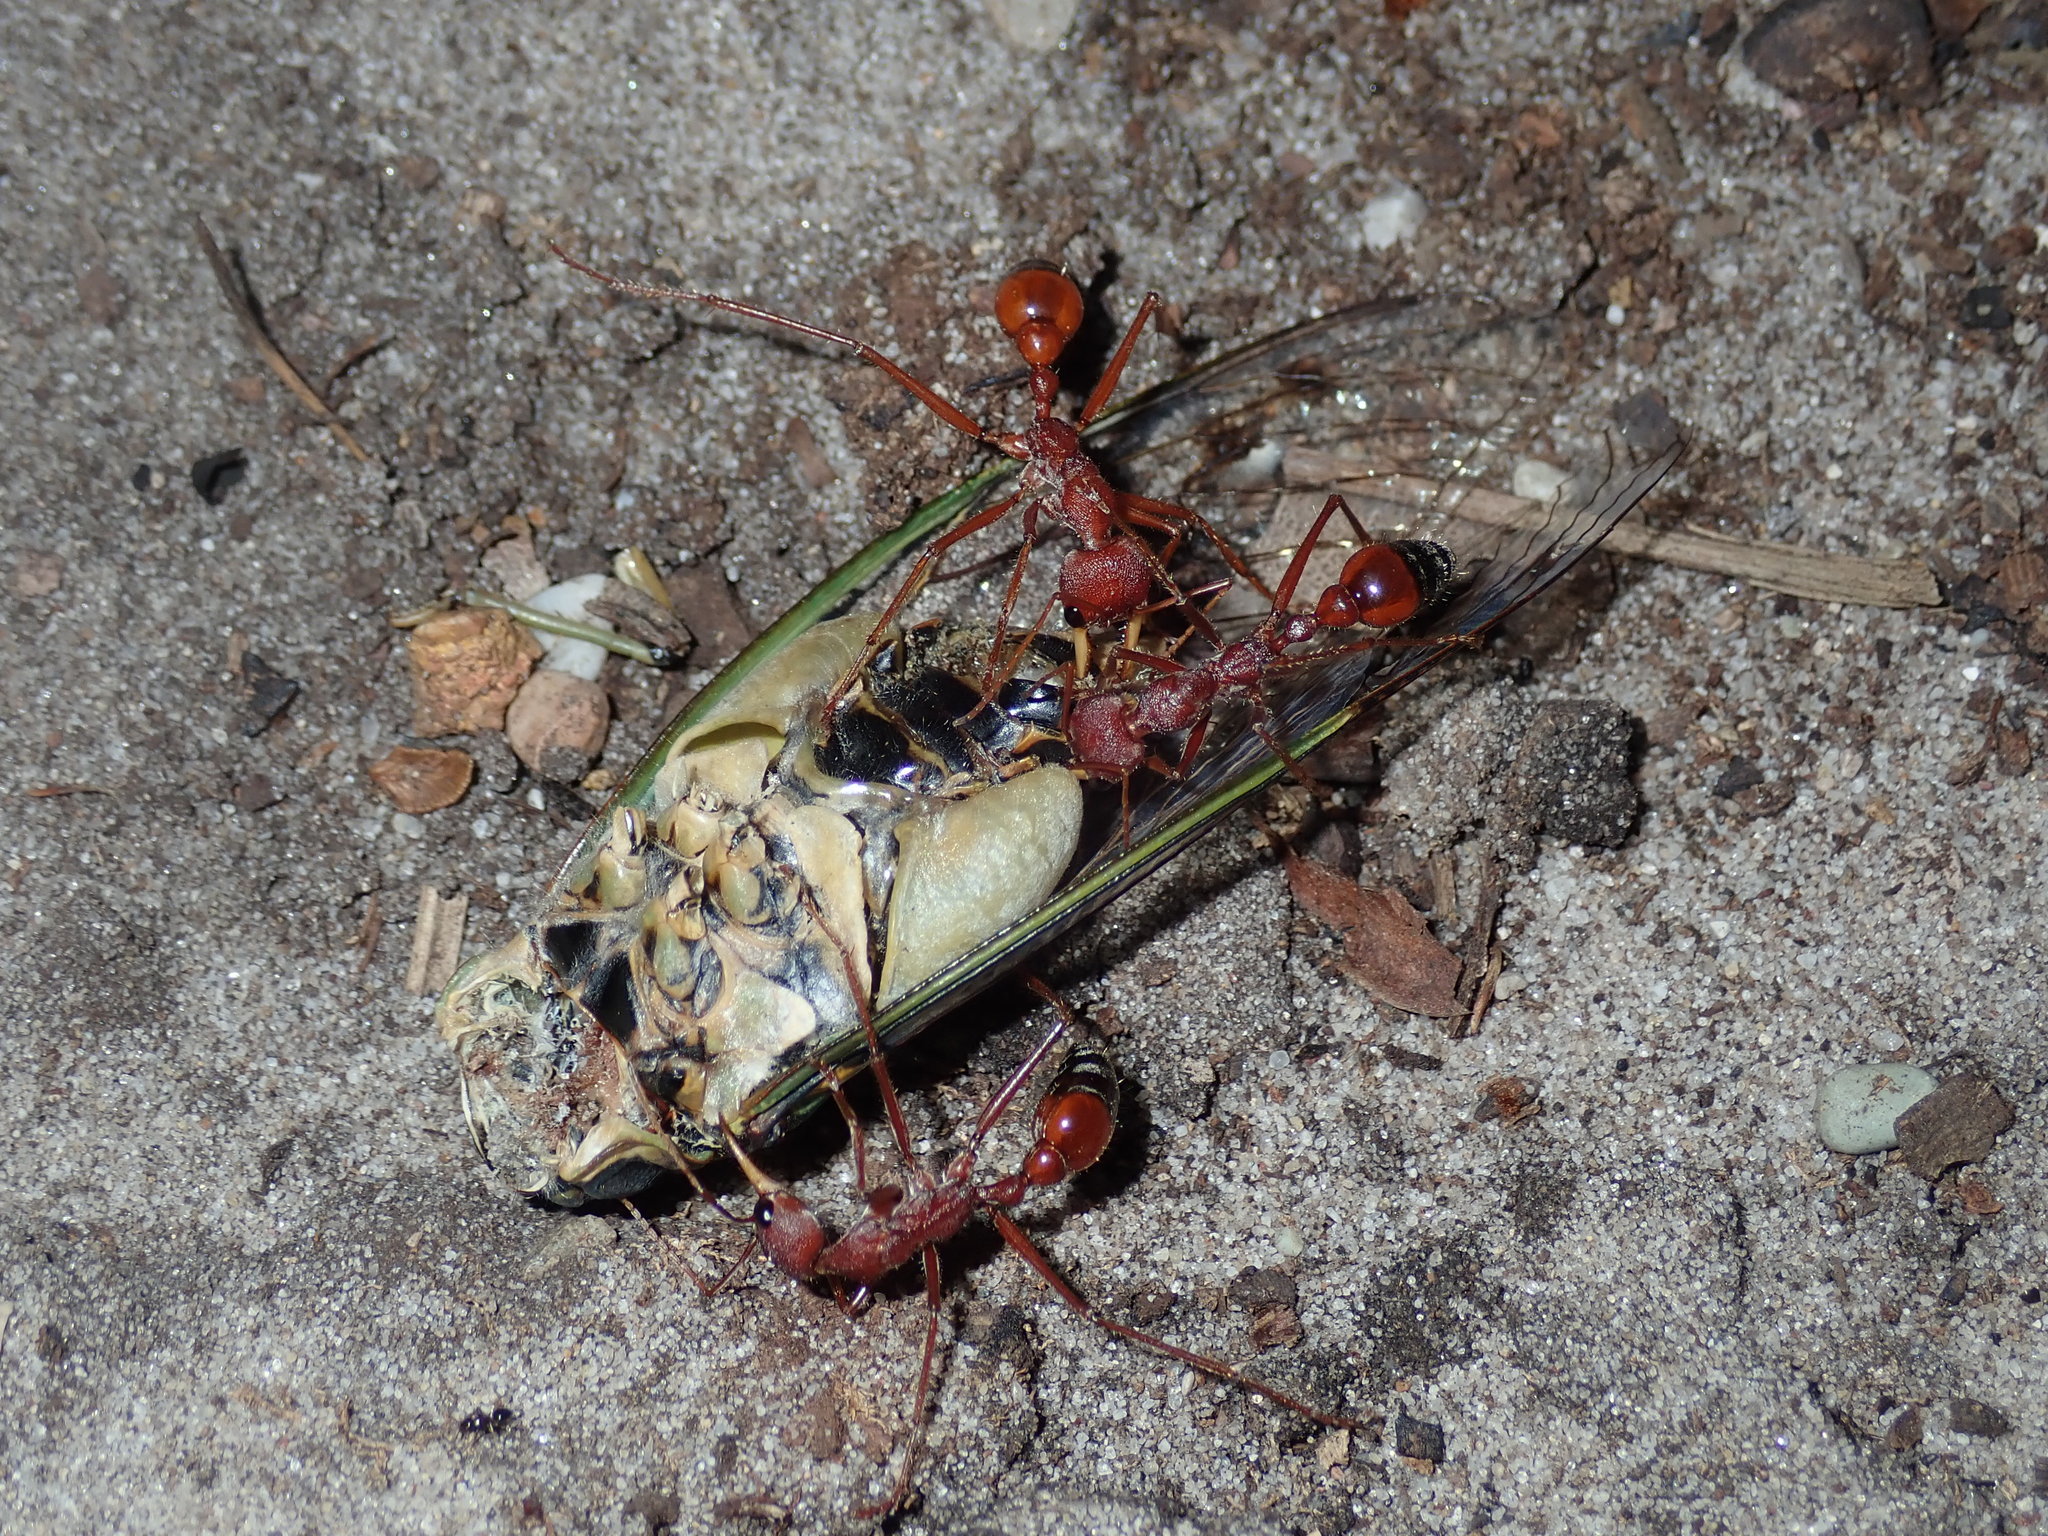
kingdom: Animalia
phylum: Arthropoda
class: Insecta
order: Hemiptera
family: Cicadidae
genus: Arunta
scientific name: Arunta perulata
